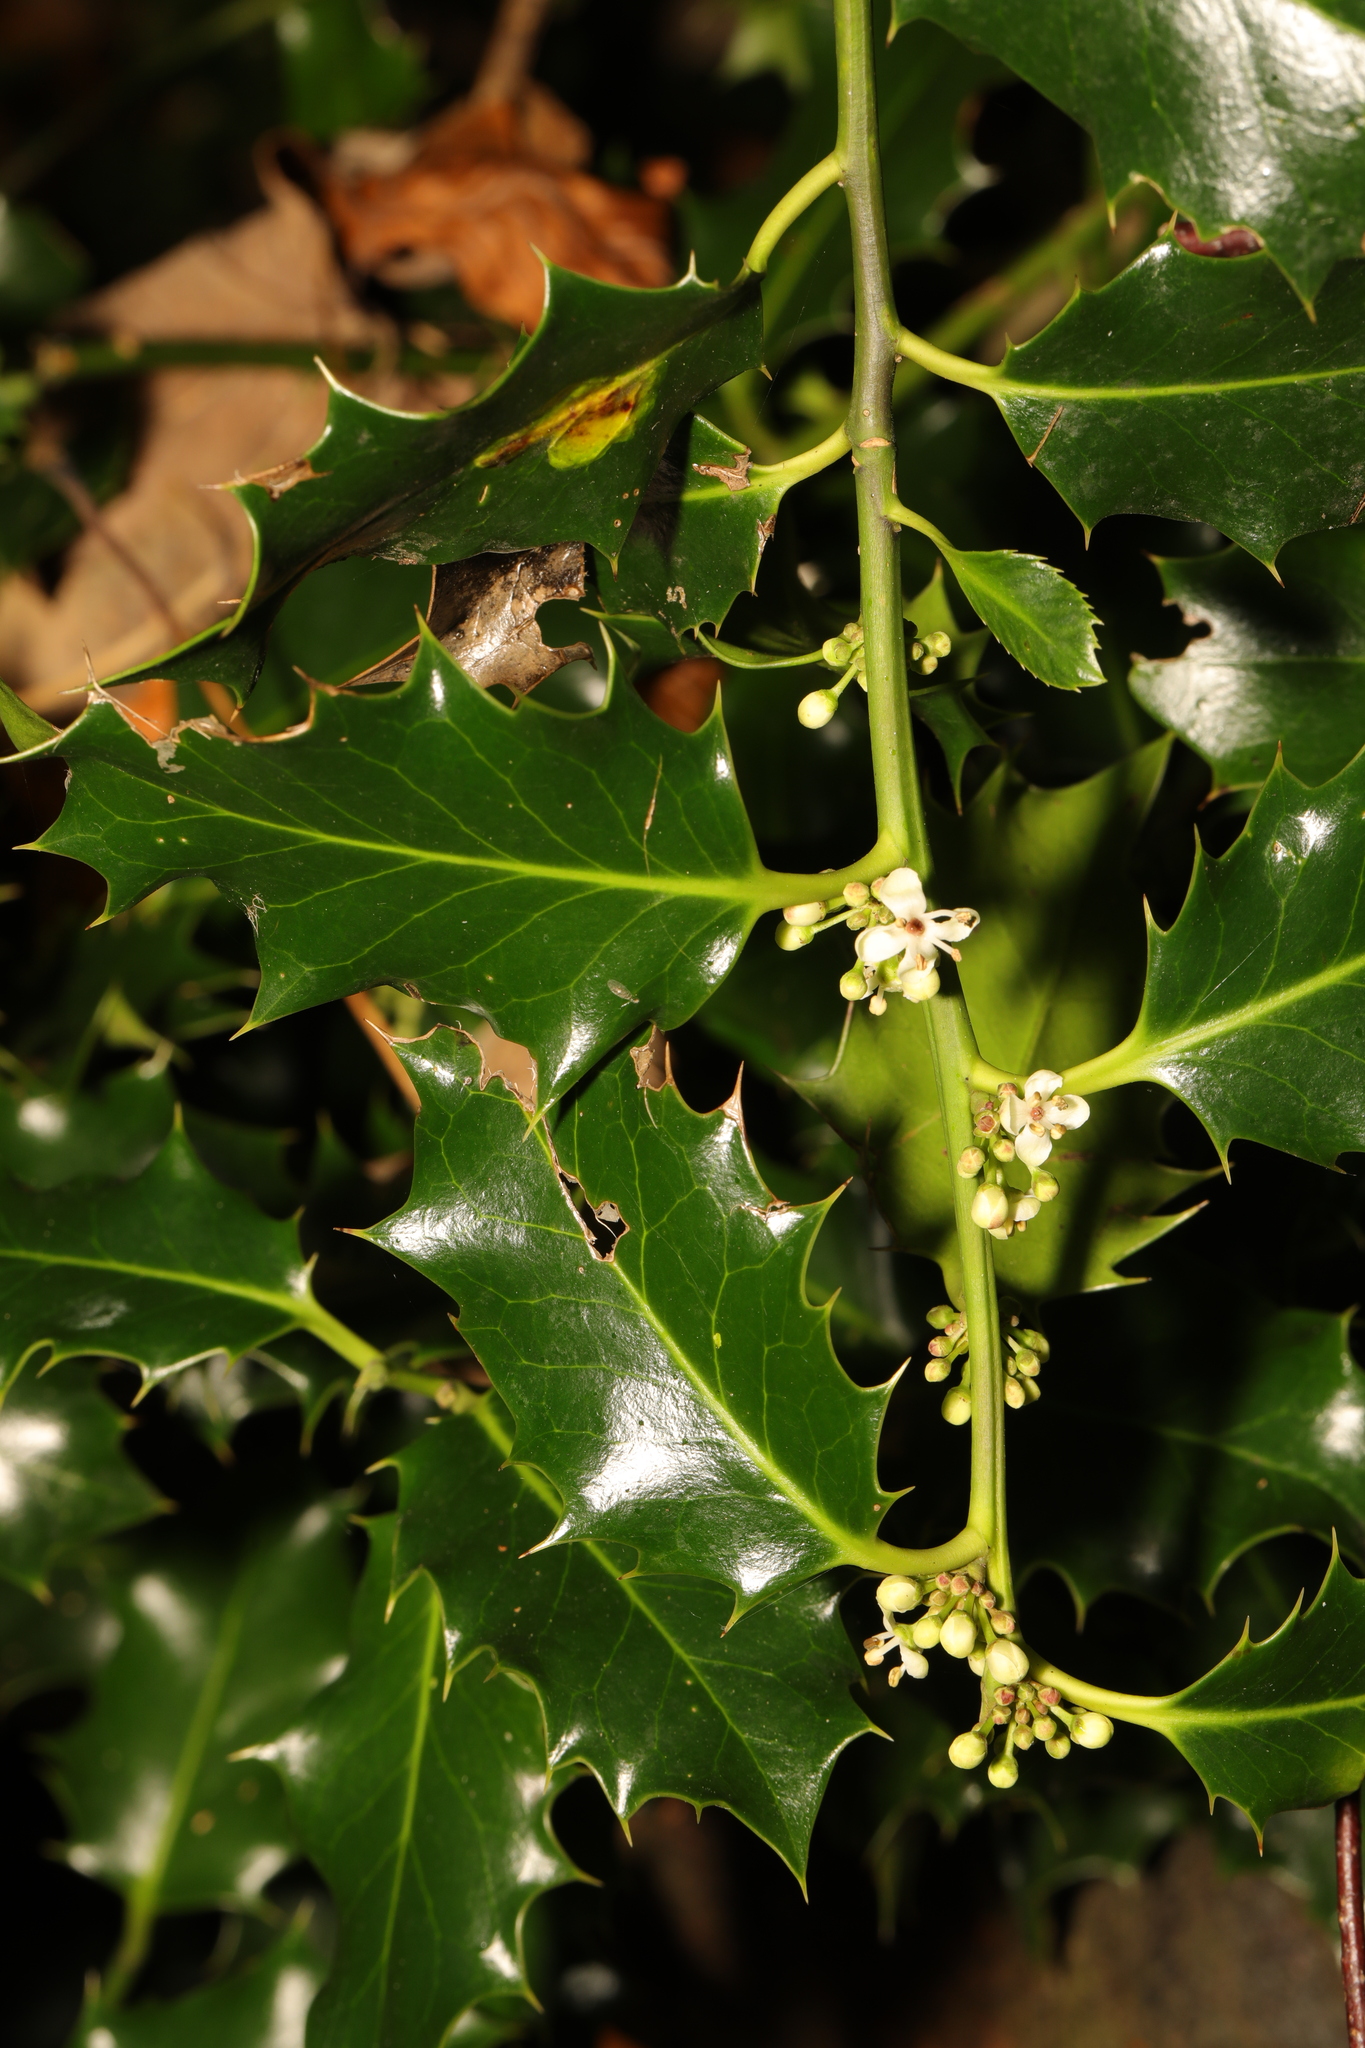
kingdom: Plantae
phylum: Tracheophyta
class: Magnoliopsida
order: Aquifoliales
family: Aquifoliaceae
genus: Ilex
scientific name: Ilex aquifolium
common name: English holly
